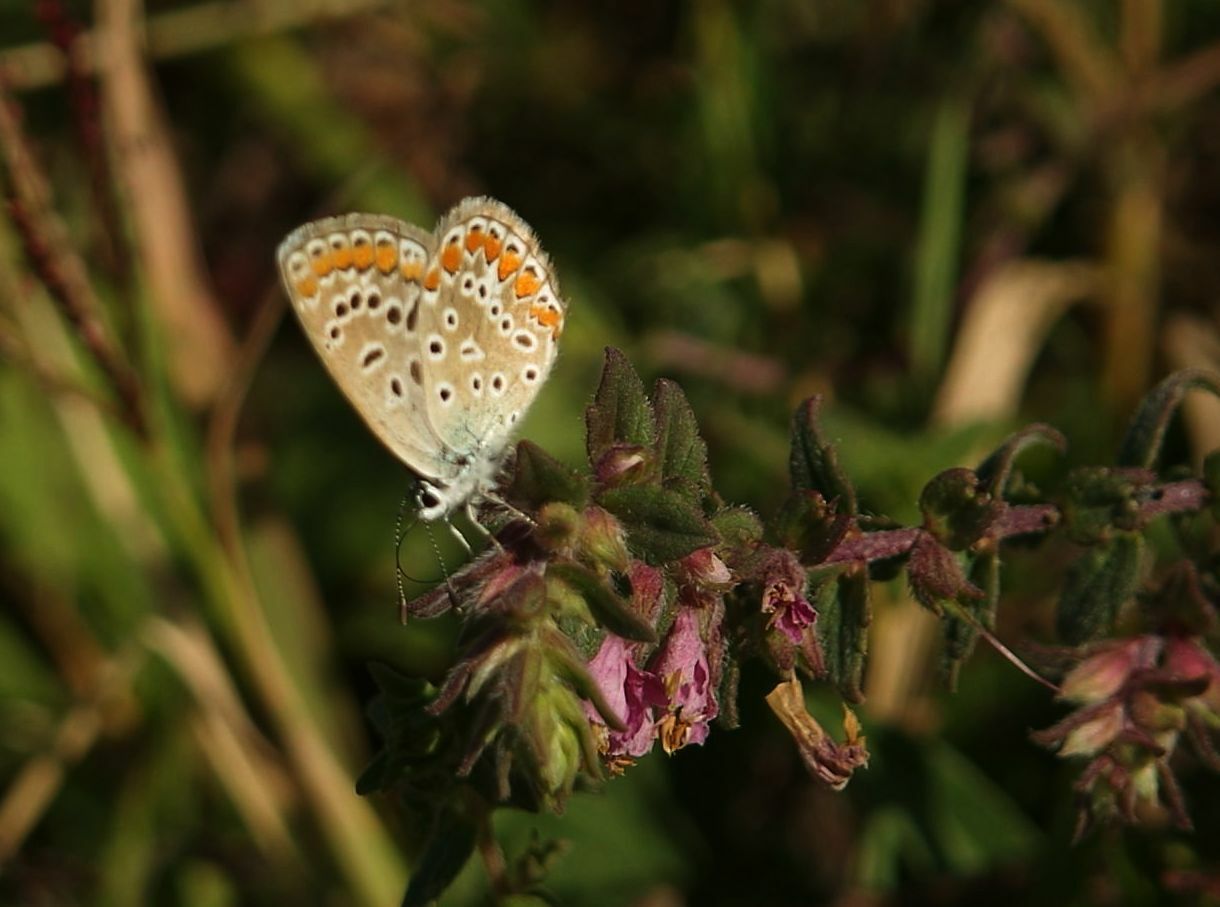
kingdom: Animalia
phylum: Arthropoda
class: Insecta
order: Lepidoptera
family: Lycaenidae
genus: Polyommatus
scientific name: Polyommatus icarus
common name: Common blue
